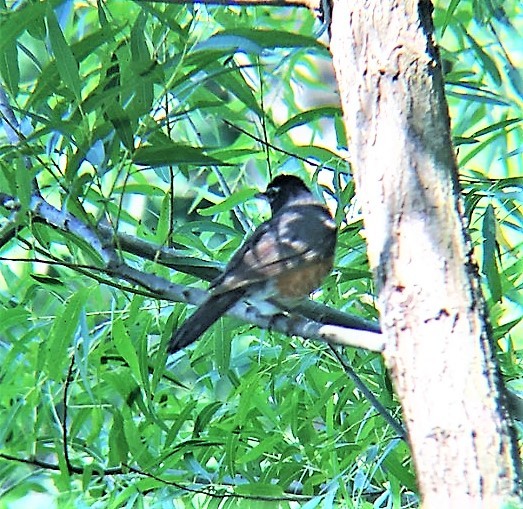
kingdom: Animalia
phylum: Chordata
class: Aves
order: Passeriformes
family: Turdidae
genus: Turdus
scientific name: Turdus migratorius
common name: American robin
